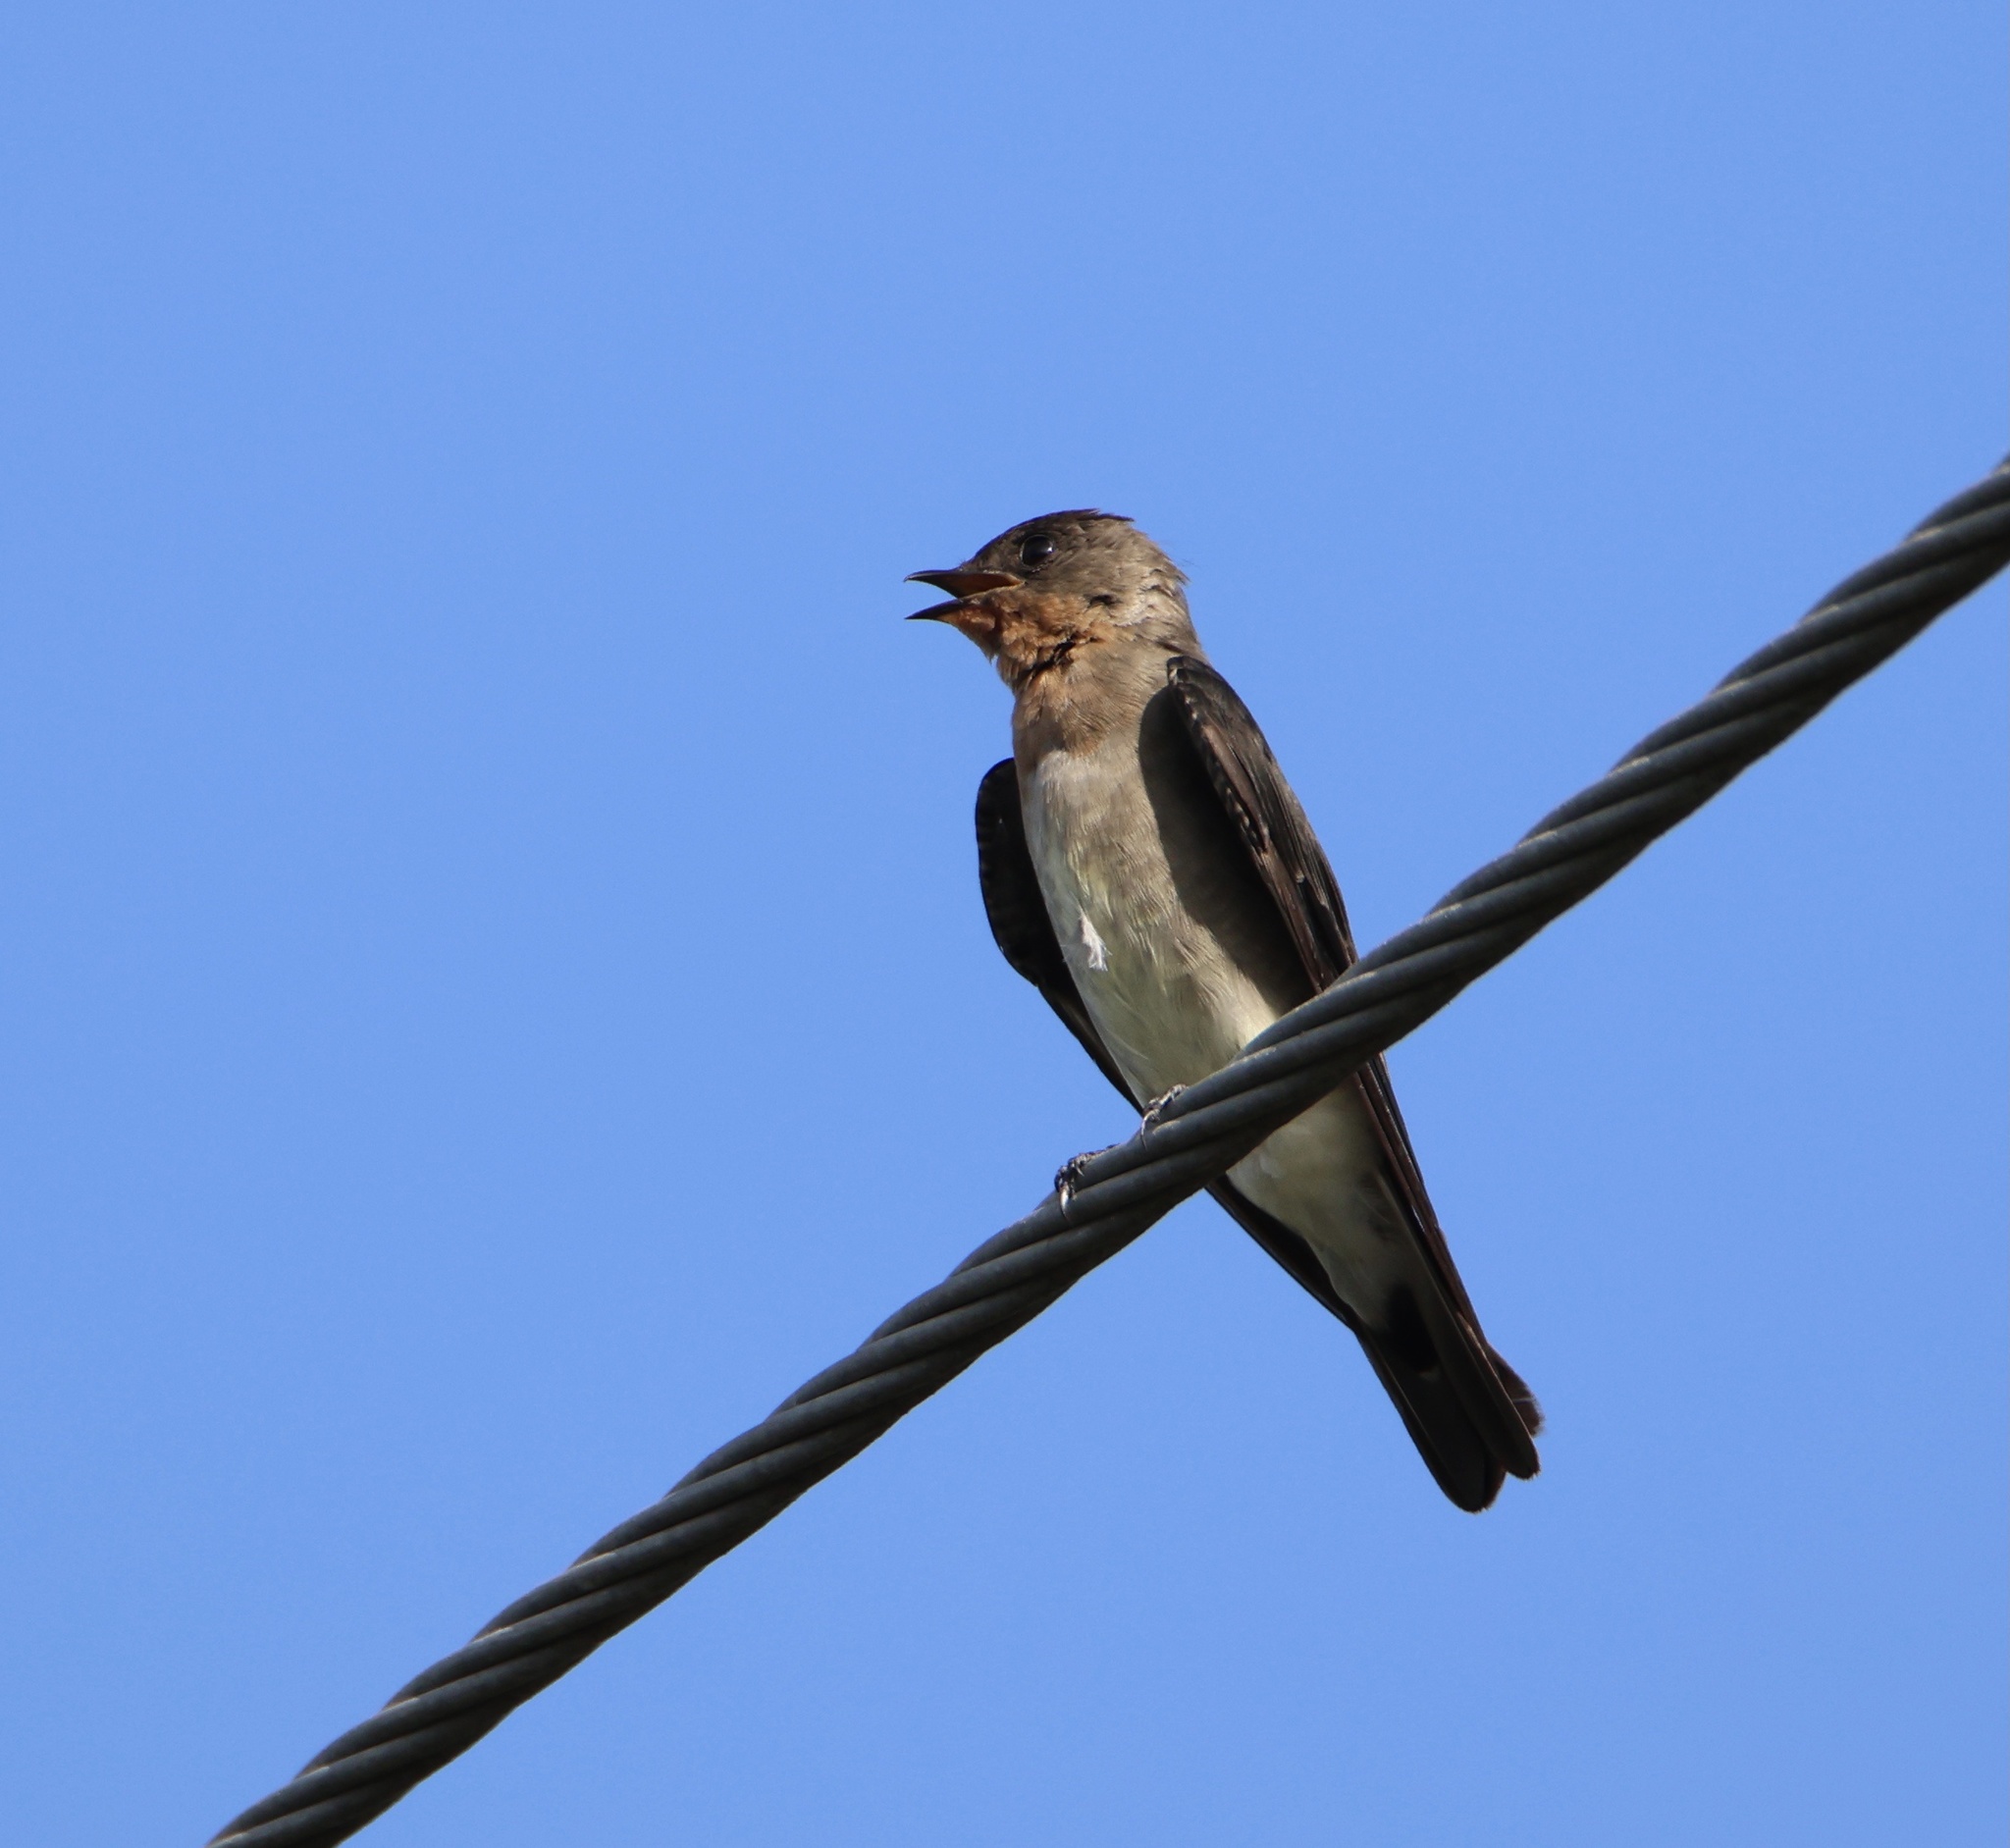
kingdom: Animalia
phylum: Chordata
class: Aves
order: Passeriformes
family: Hirundinidae
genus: Stelgidopteryx
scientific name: Stelgidopteryx ruficollis
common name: Southern rough-winged swallow
